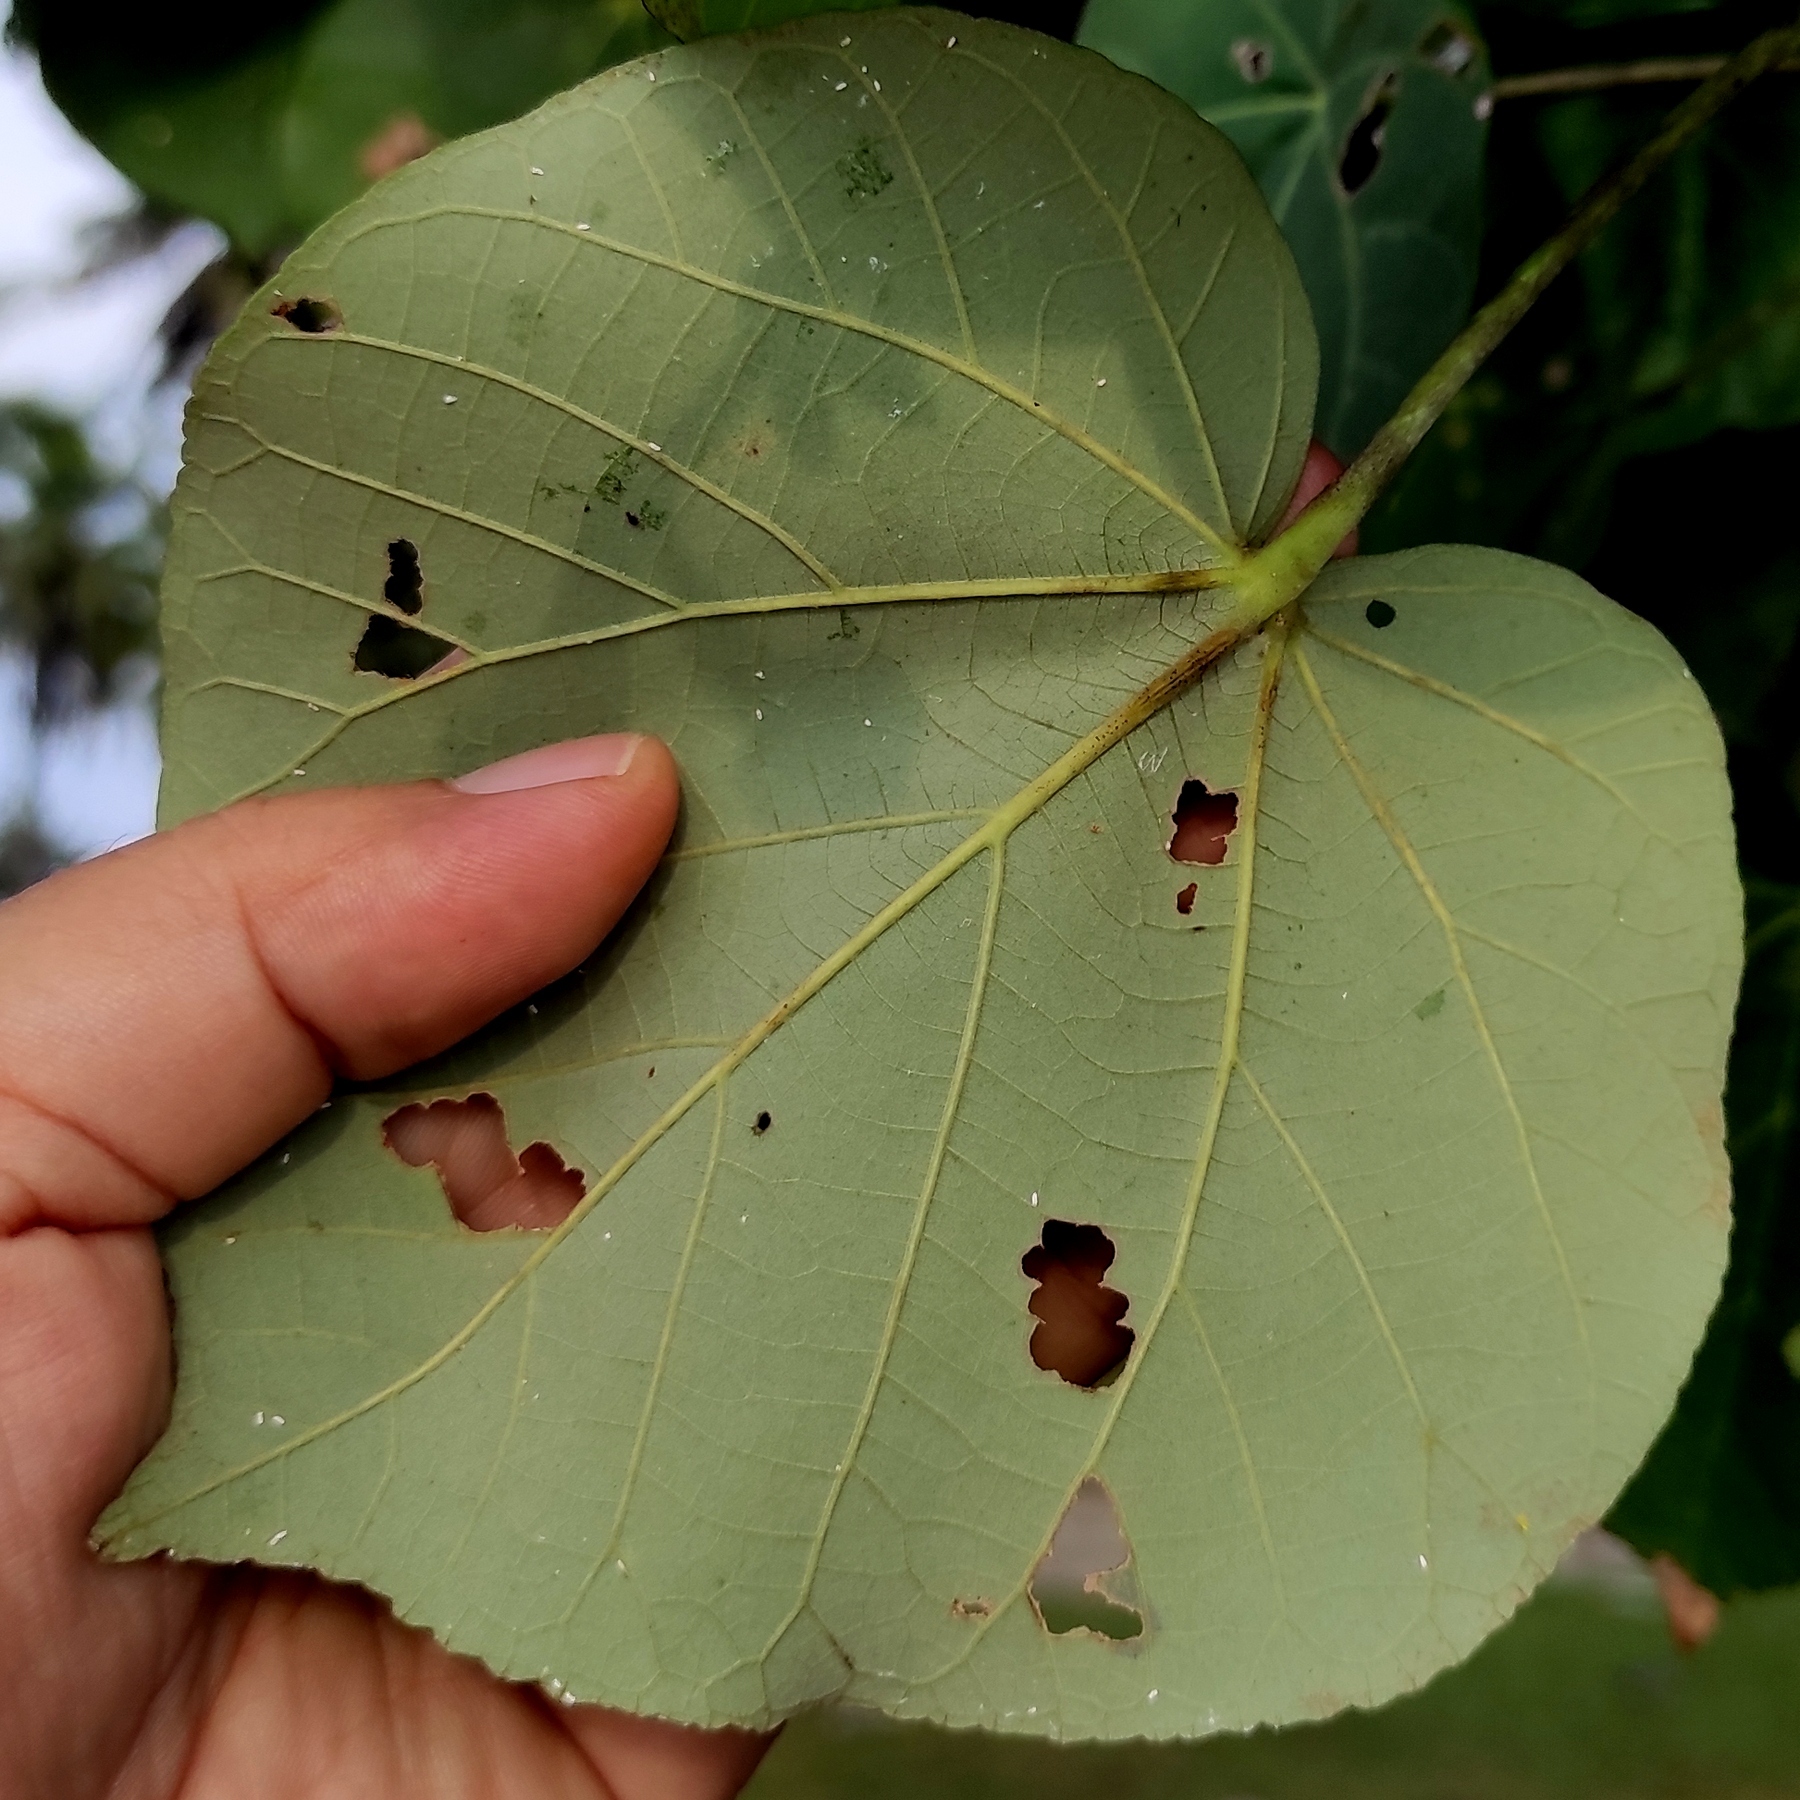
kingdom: Plantae
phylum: Tracheophyta
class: Magnoliopsida
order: Malvales
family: Malvaceae
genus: Talipariti
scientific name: Talipariti tiliaceum
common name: Sea hibiscus
